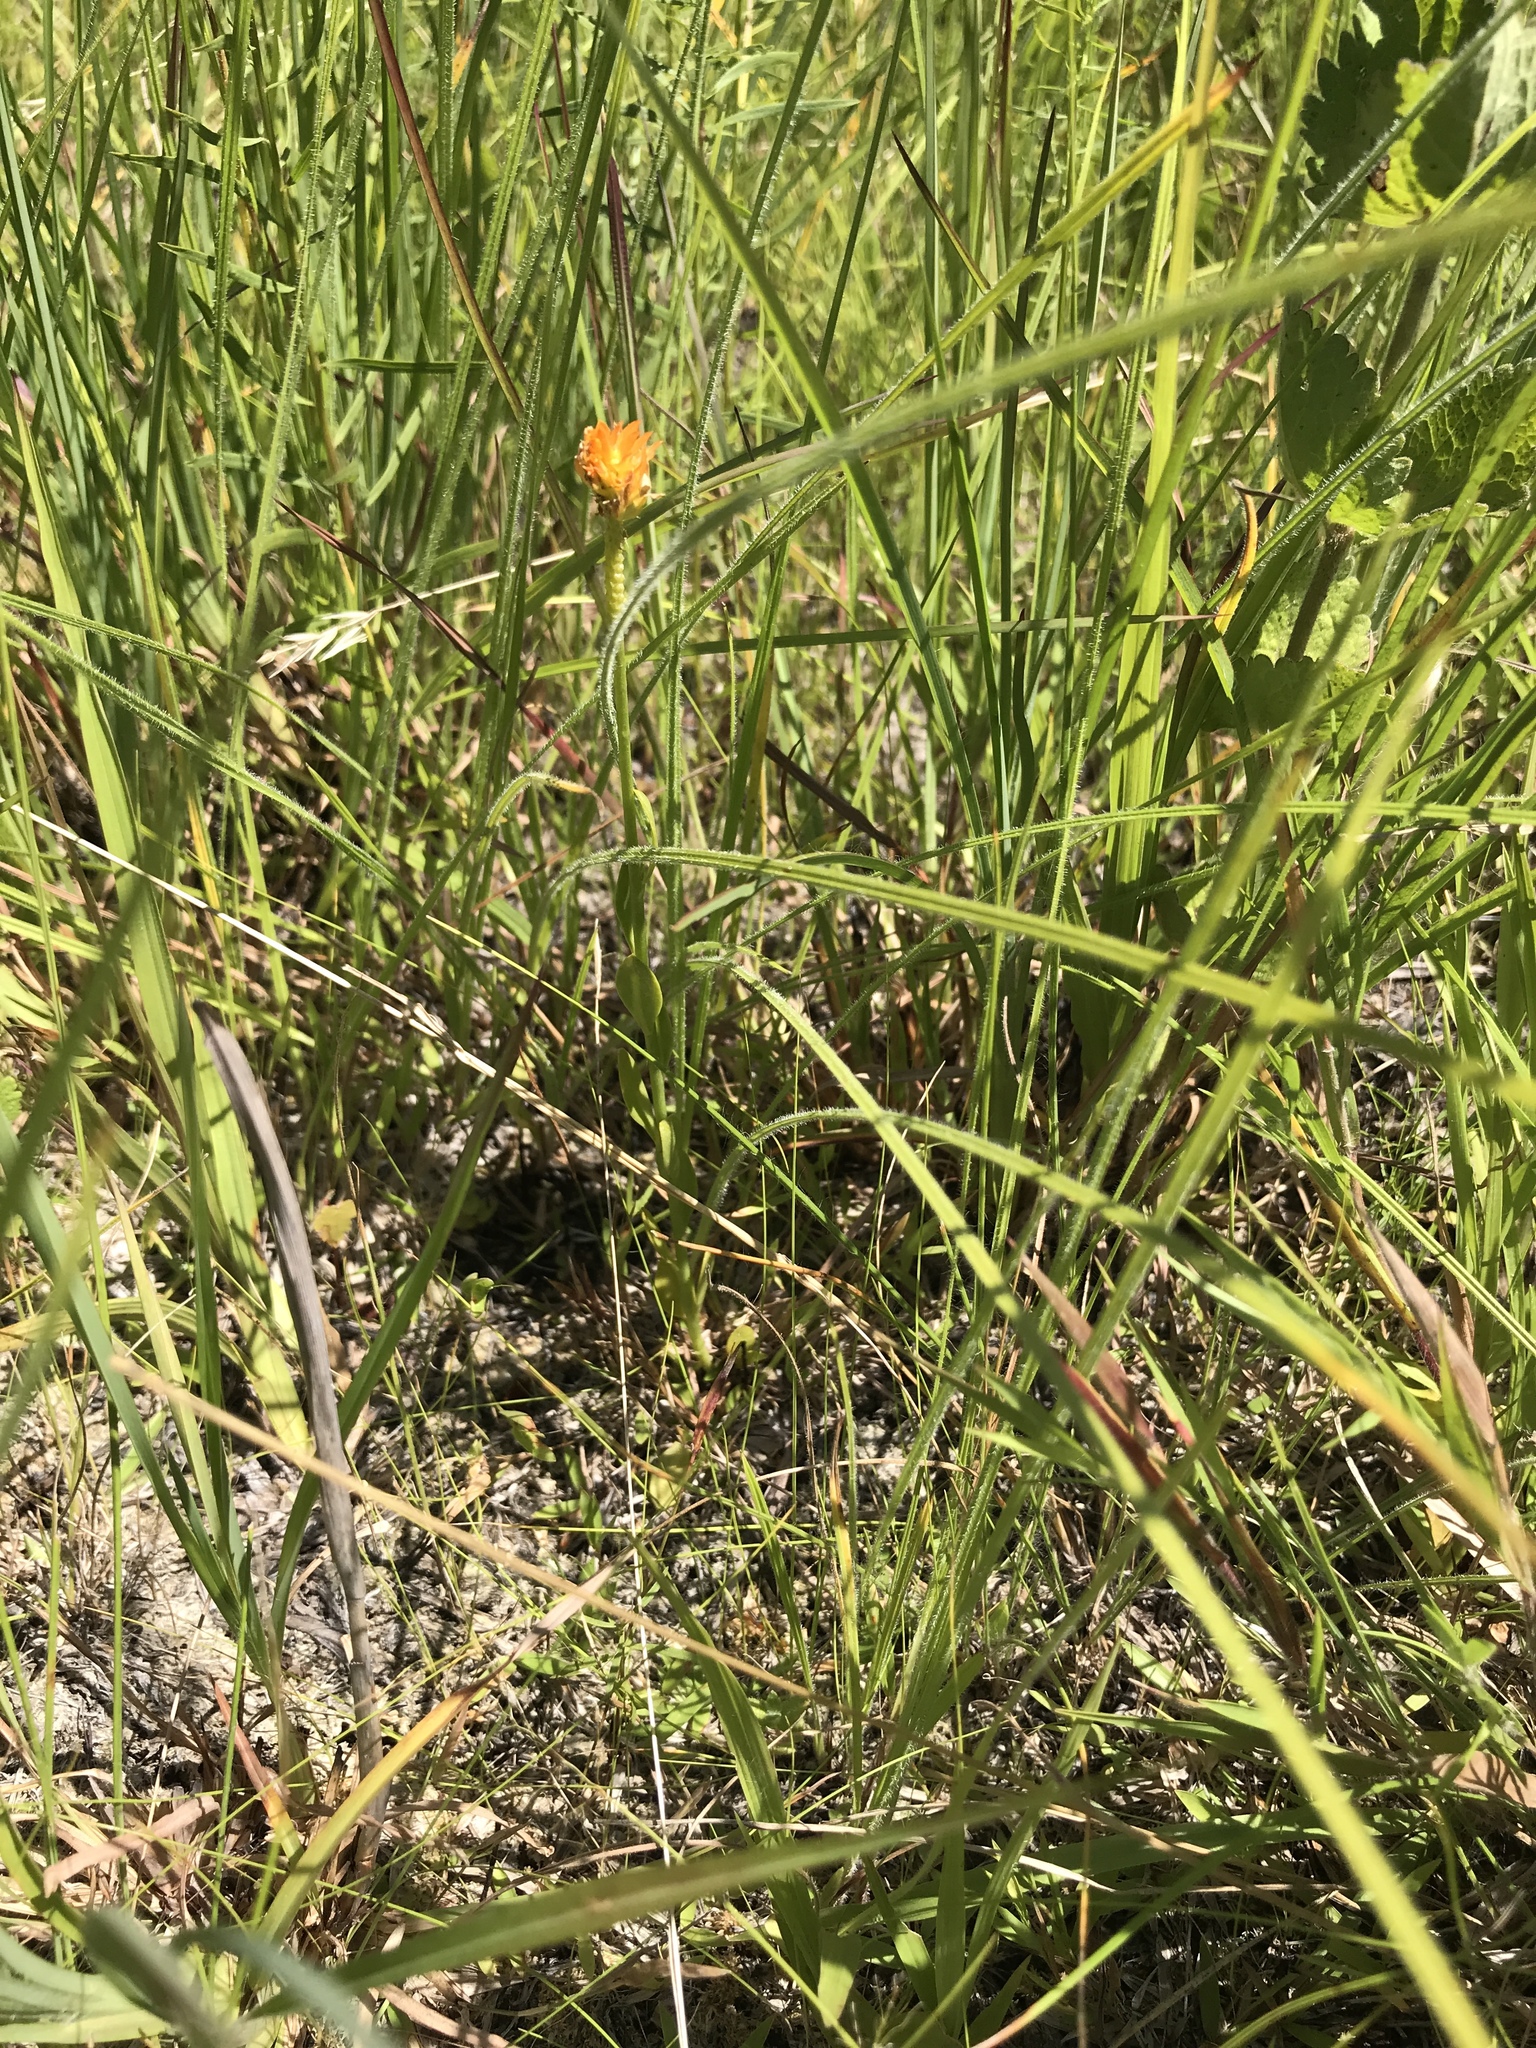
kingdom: Plantae
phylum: Tracheophyta
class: Magnoliopsida
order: Fabales
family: Polygalaceae
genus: Polygala
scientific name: Polygala lutea
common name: Orange milkwort
